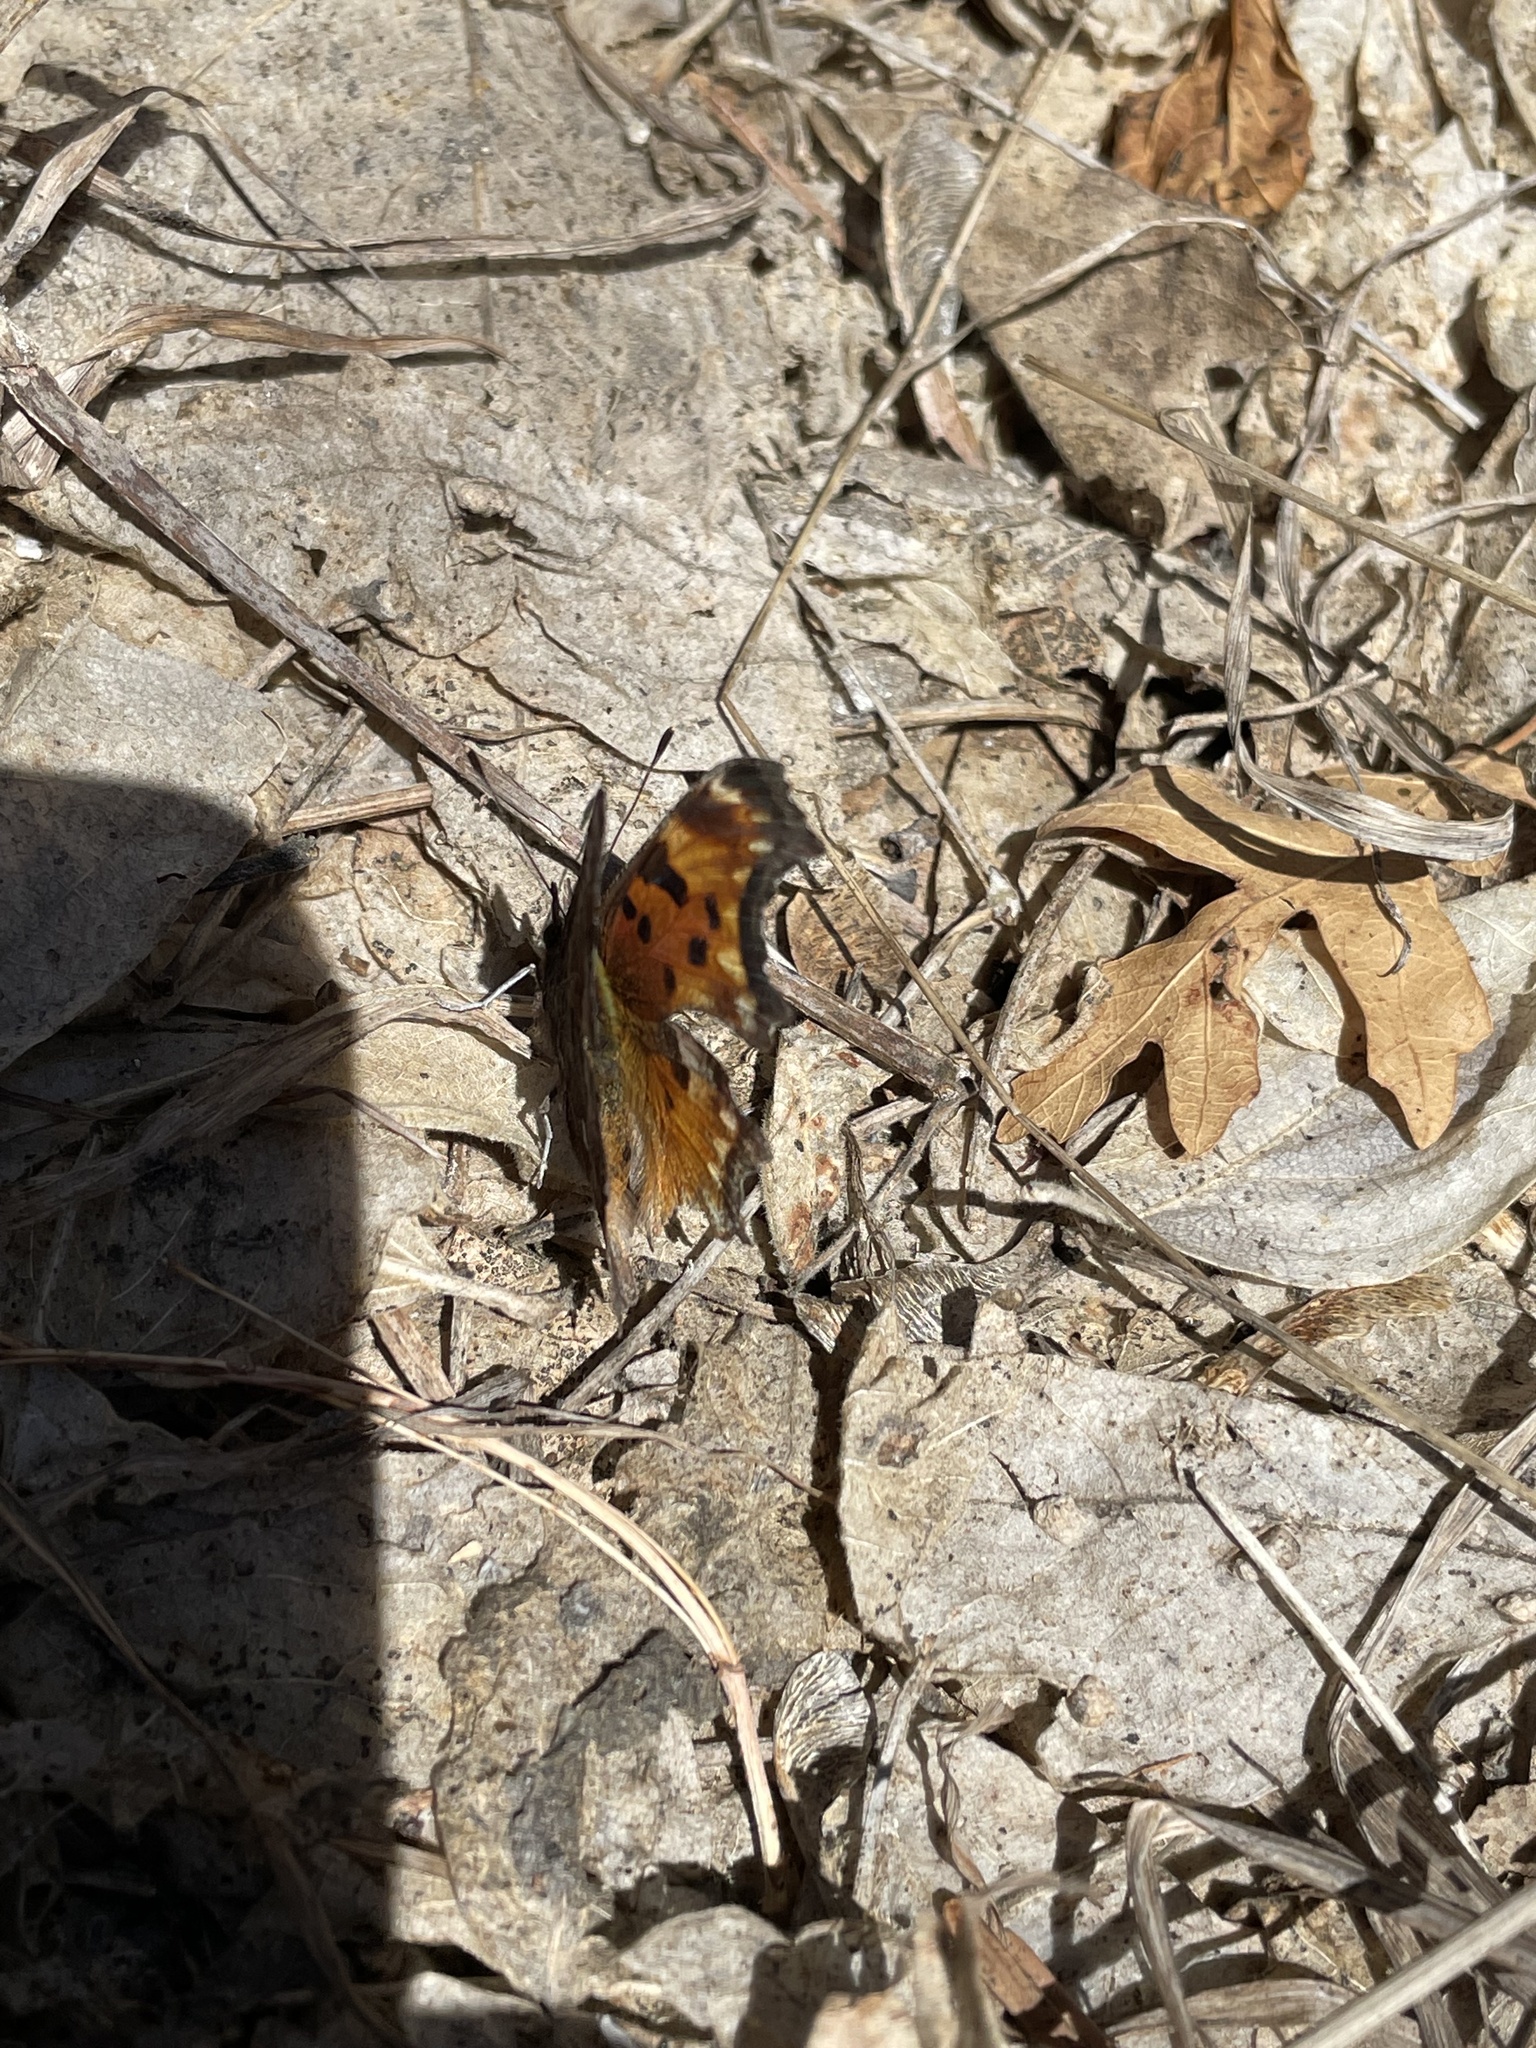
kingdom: Animalia
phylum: Arthropoda
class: Insecta
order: Lepidoptera
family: Nymphalidae
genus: Polygonia
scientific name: Polygonia gracilis
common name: Hoary comma
